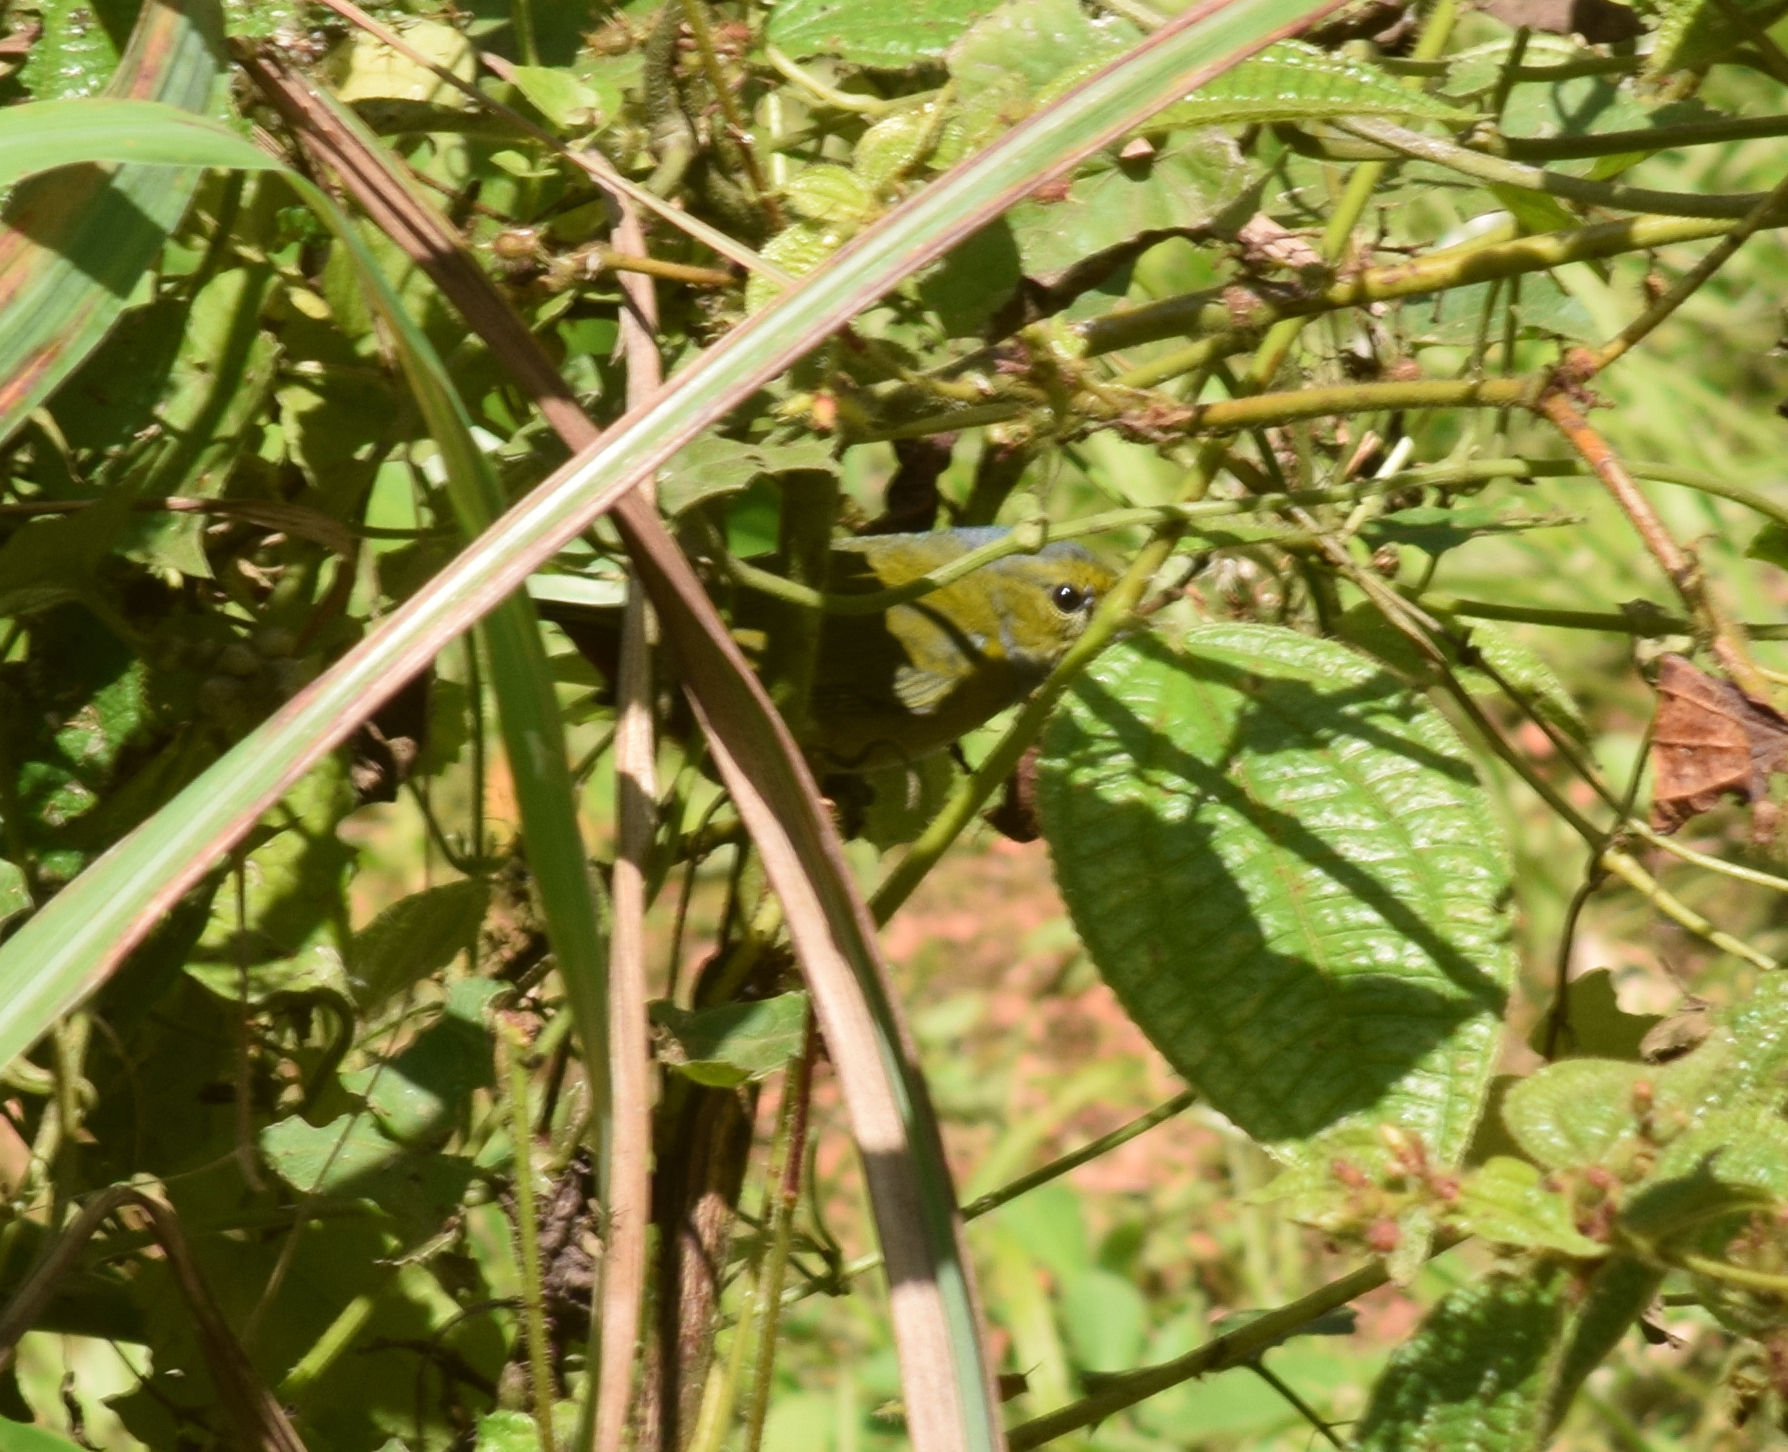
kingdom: Animalia
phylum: Chordata
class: Aves
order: Passeriformes
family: Fringillidae
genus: Euphonia
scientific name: Euphonia pectoralis
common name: Chestnut-bellied euphonia
